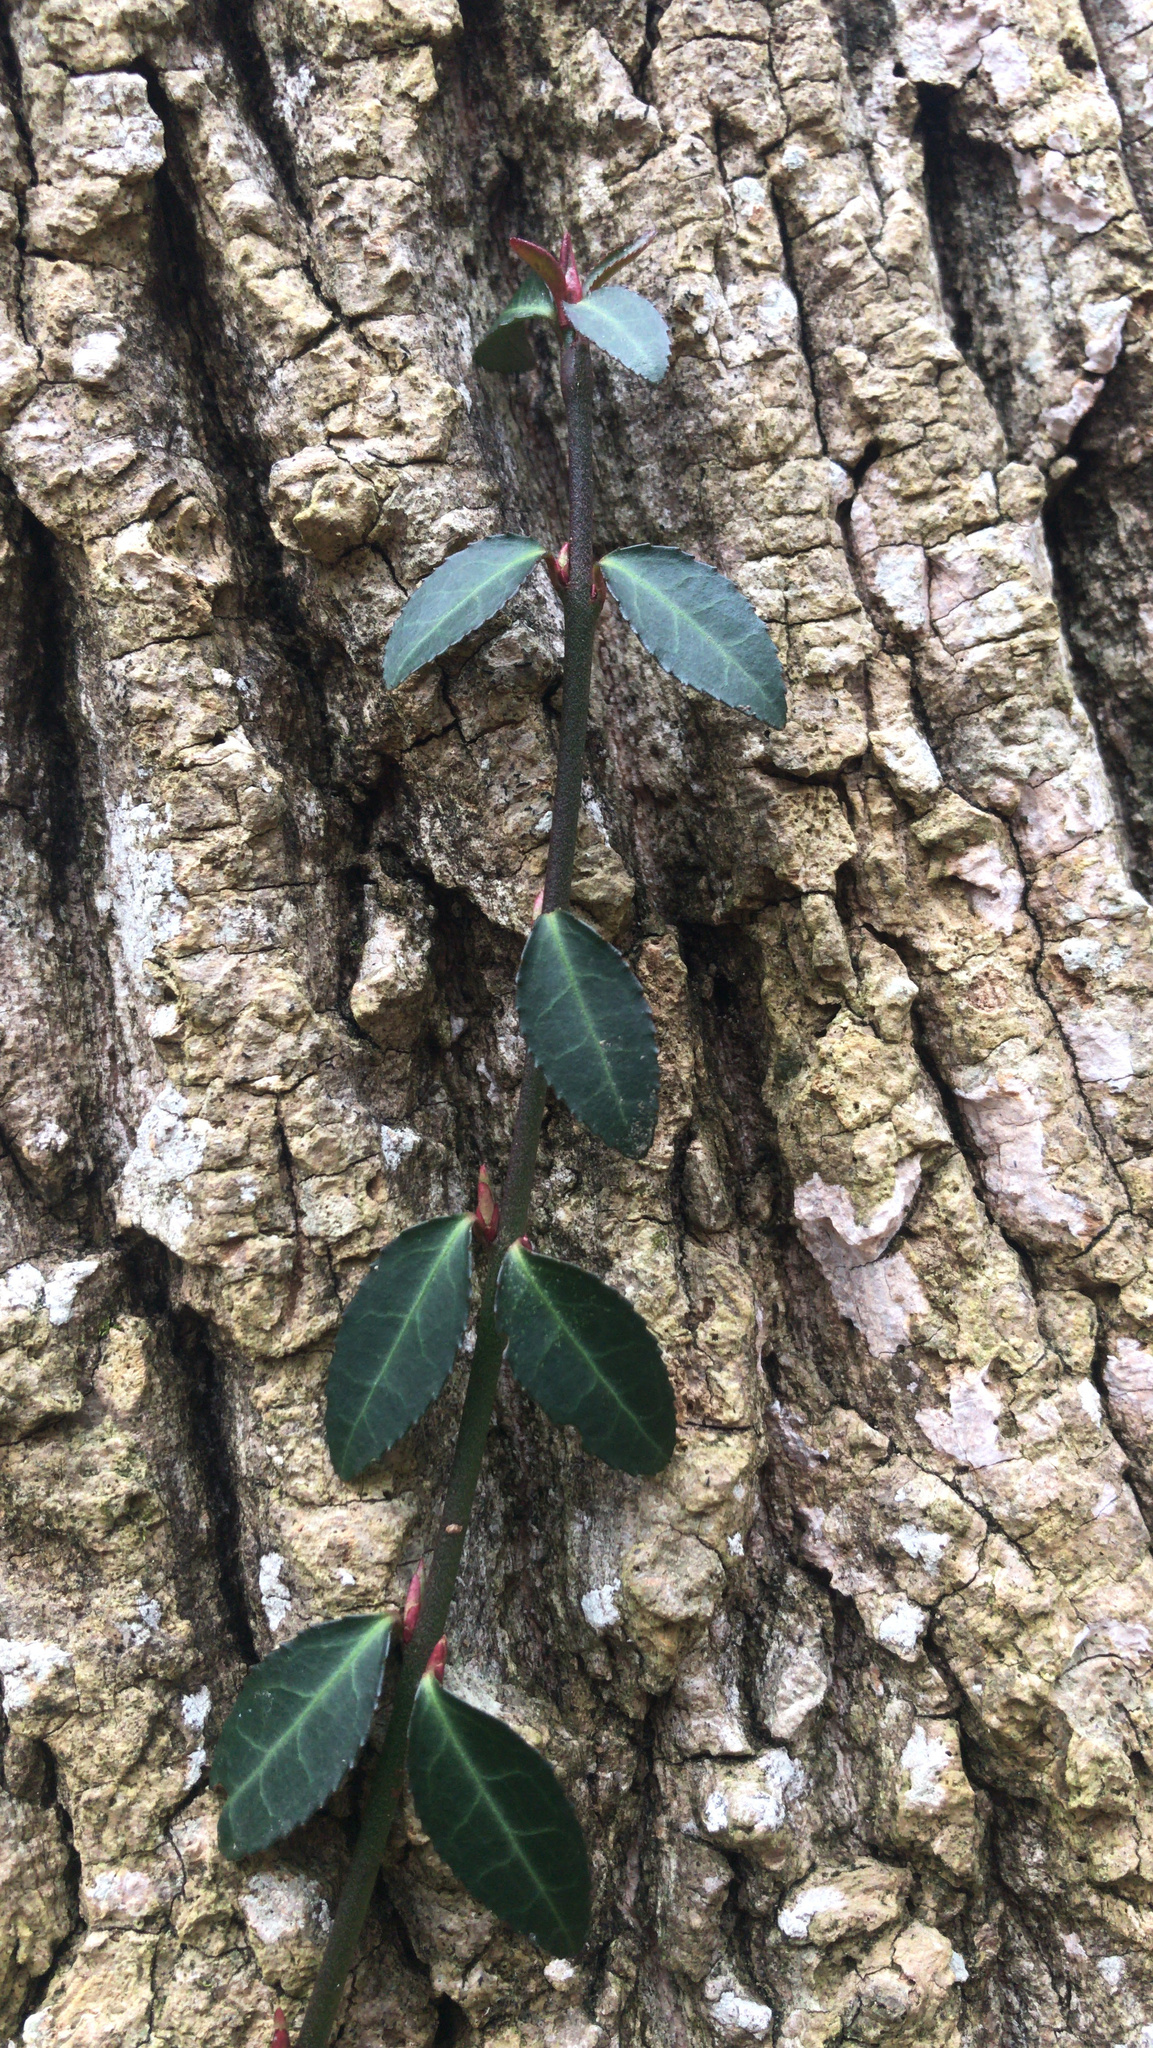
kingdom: Plantae
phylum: Tracheophyta
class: Magnoliopsida
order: Celastrales
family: Celastraceae
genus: Euonymus
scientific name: Euonymus fortunei
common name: Climbing euonymus
